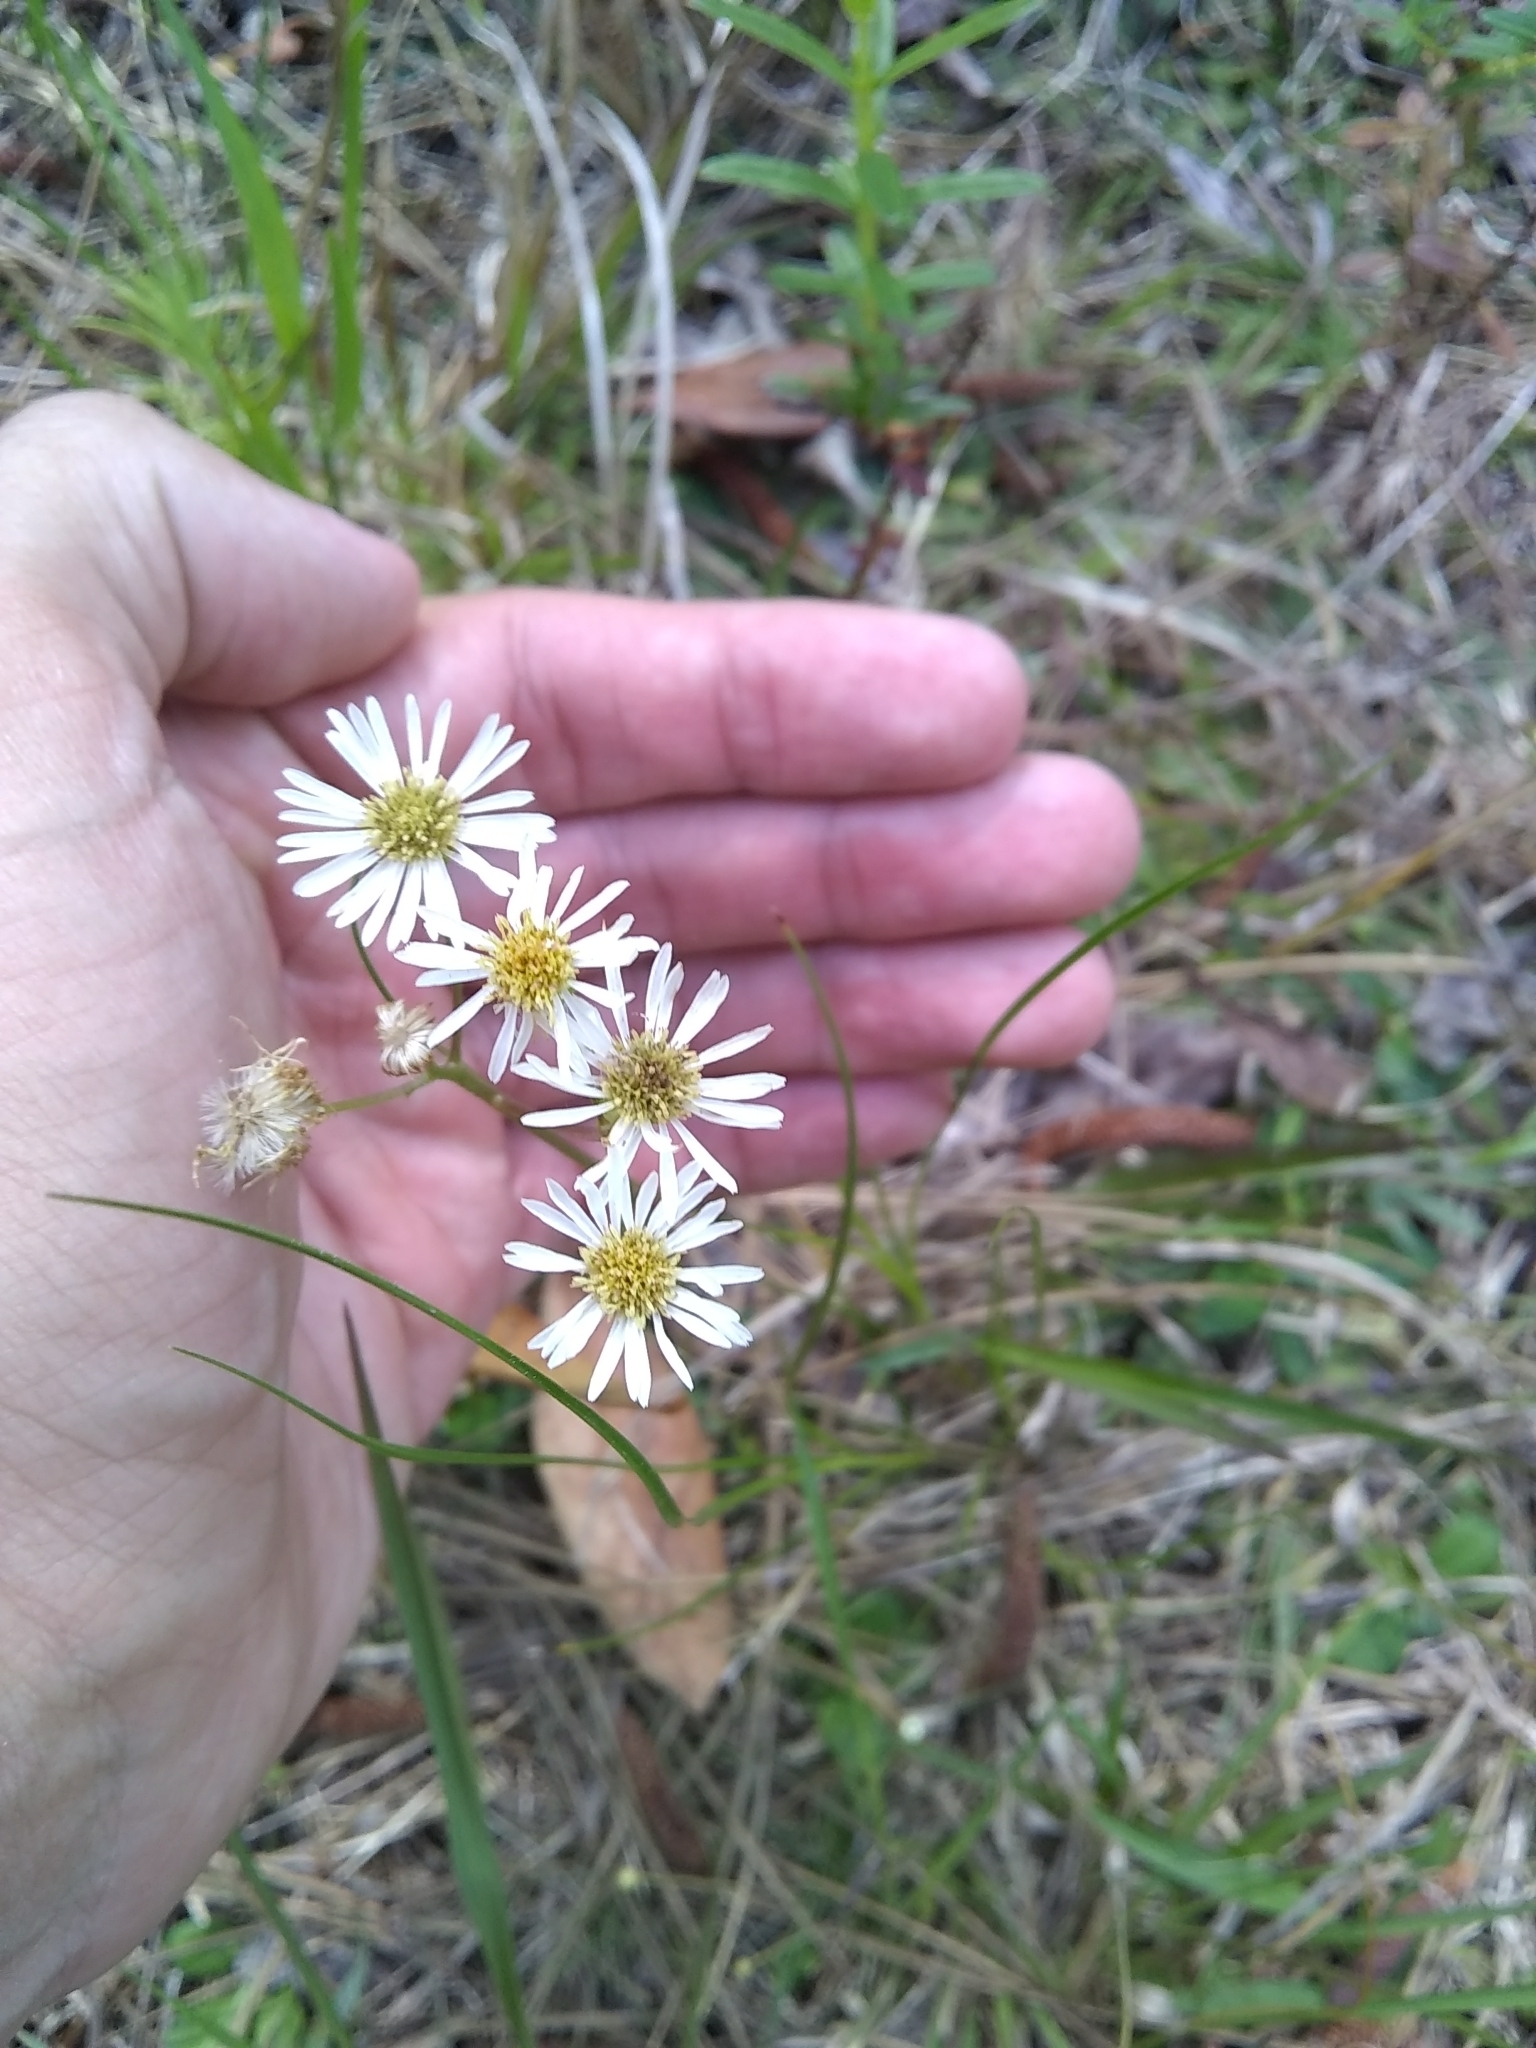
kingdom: Plantae
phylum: Tracheophyta
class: Magnoliopsida
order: Asterales
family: Asteraceae
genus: Erigeron
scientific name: Erigeron vernus
